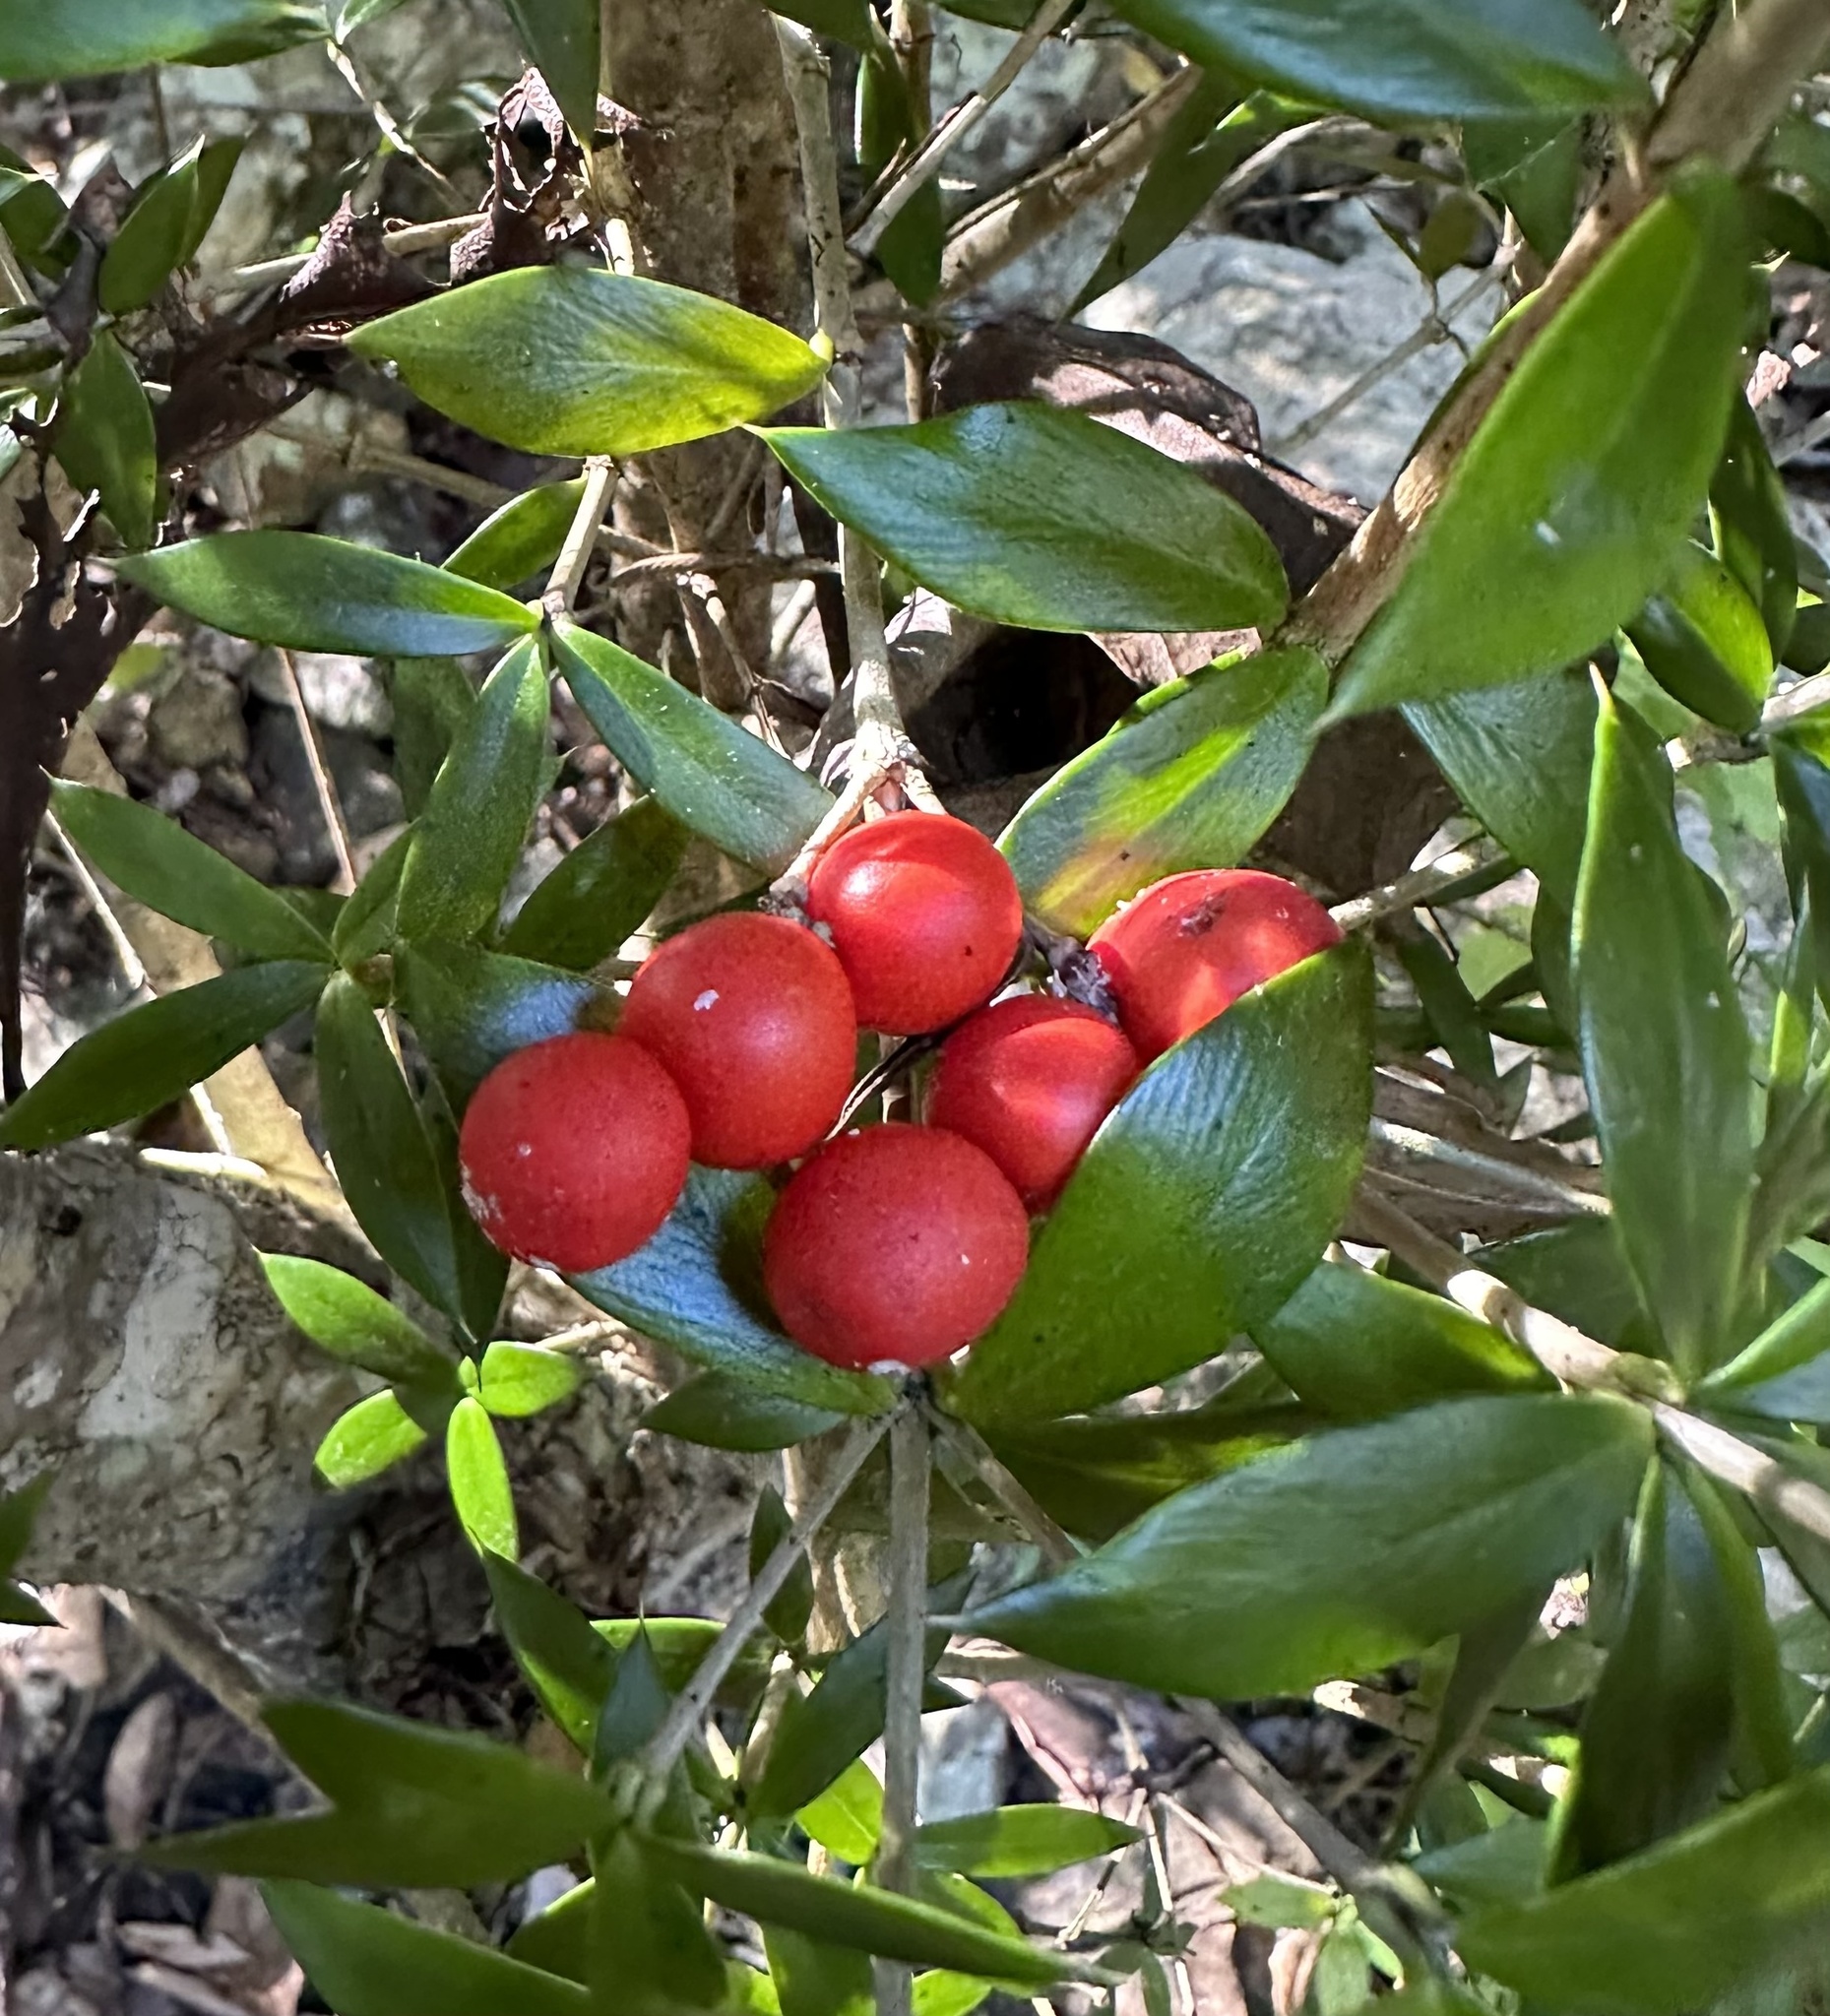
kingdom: Plantae
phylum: Tracheophyta
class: Magnoliopsida
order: Gentianales
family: Apocynaceae
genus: Alyxia
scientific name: Alyxia ruscifolia
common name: Chainfruit
